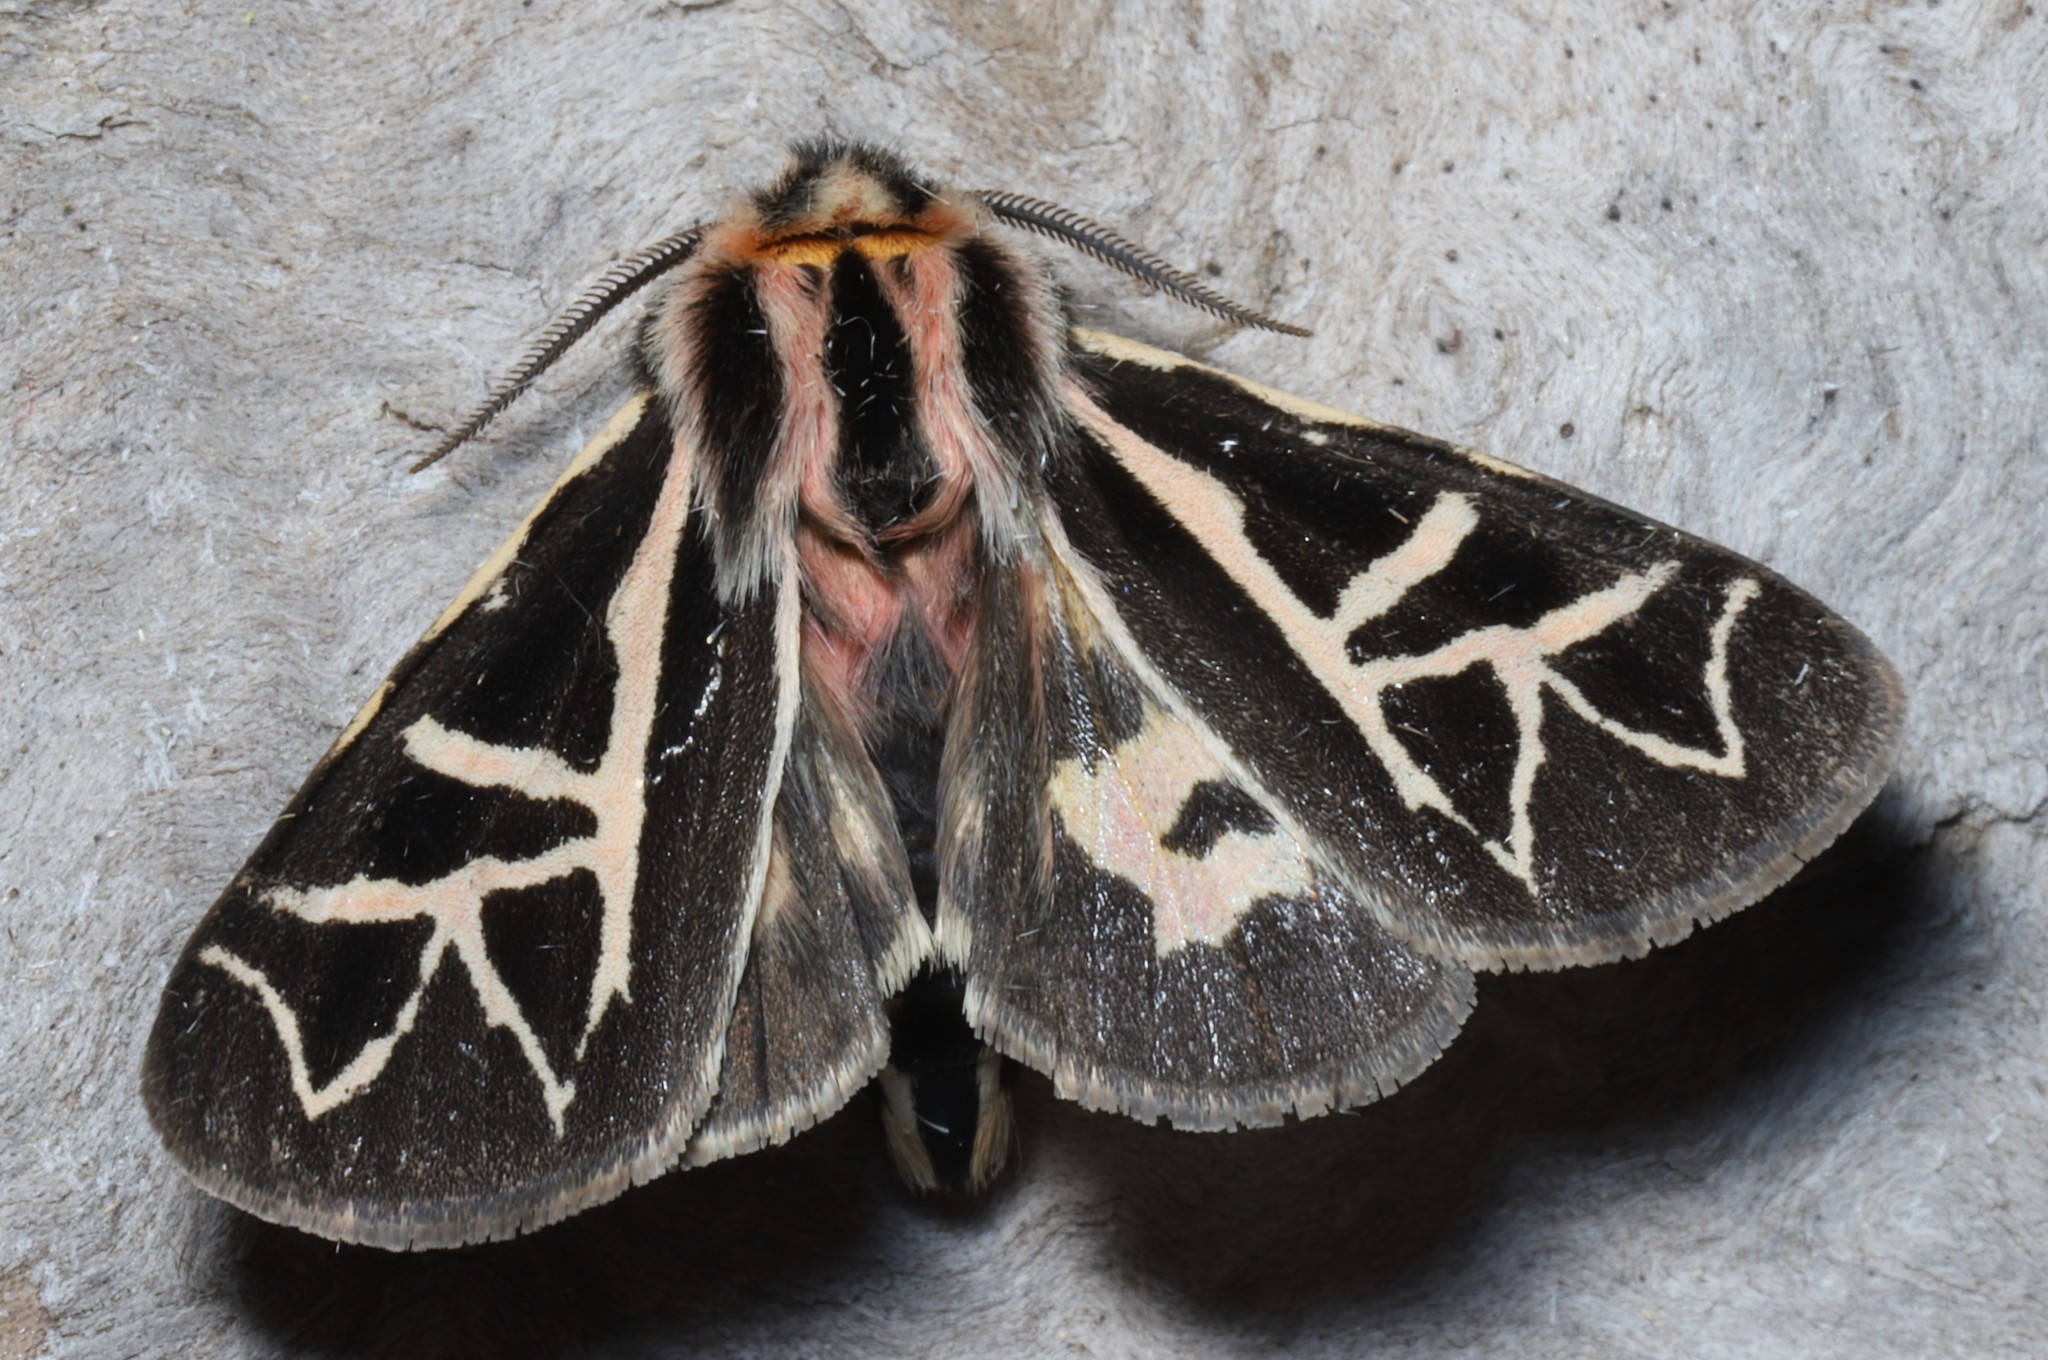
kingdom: Animalia
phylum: Arthropoda
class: Insecta
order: Lepidoptera
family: Erebidae
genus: Apantesis
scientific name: Apantesis
